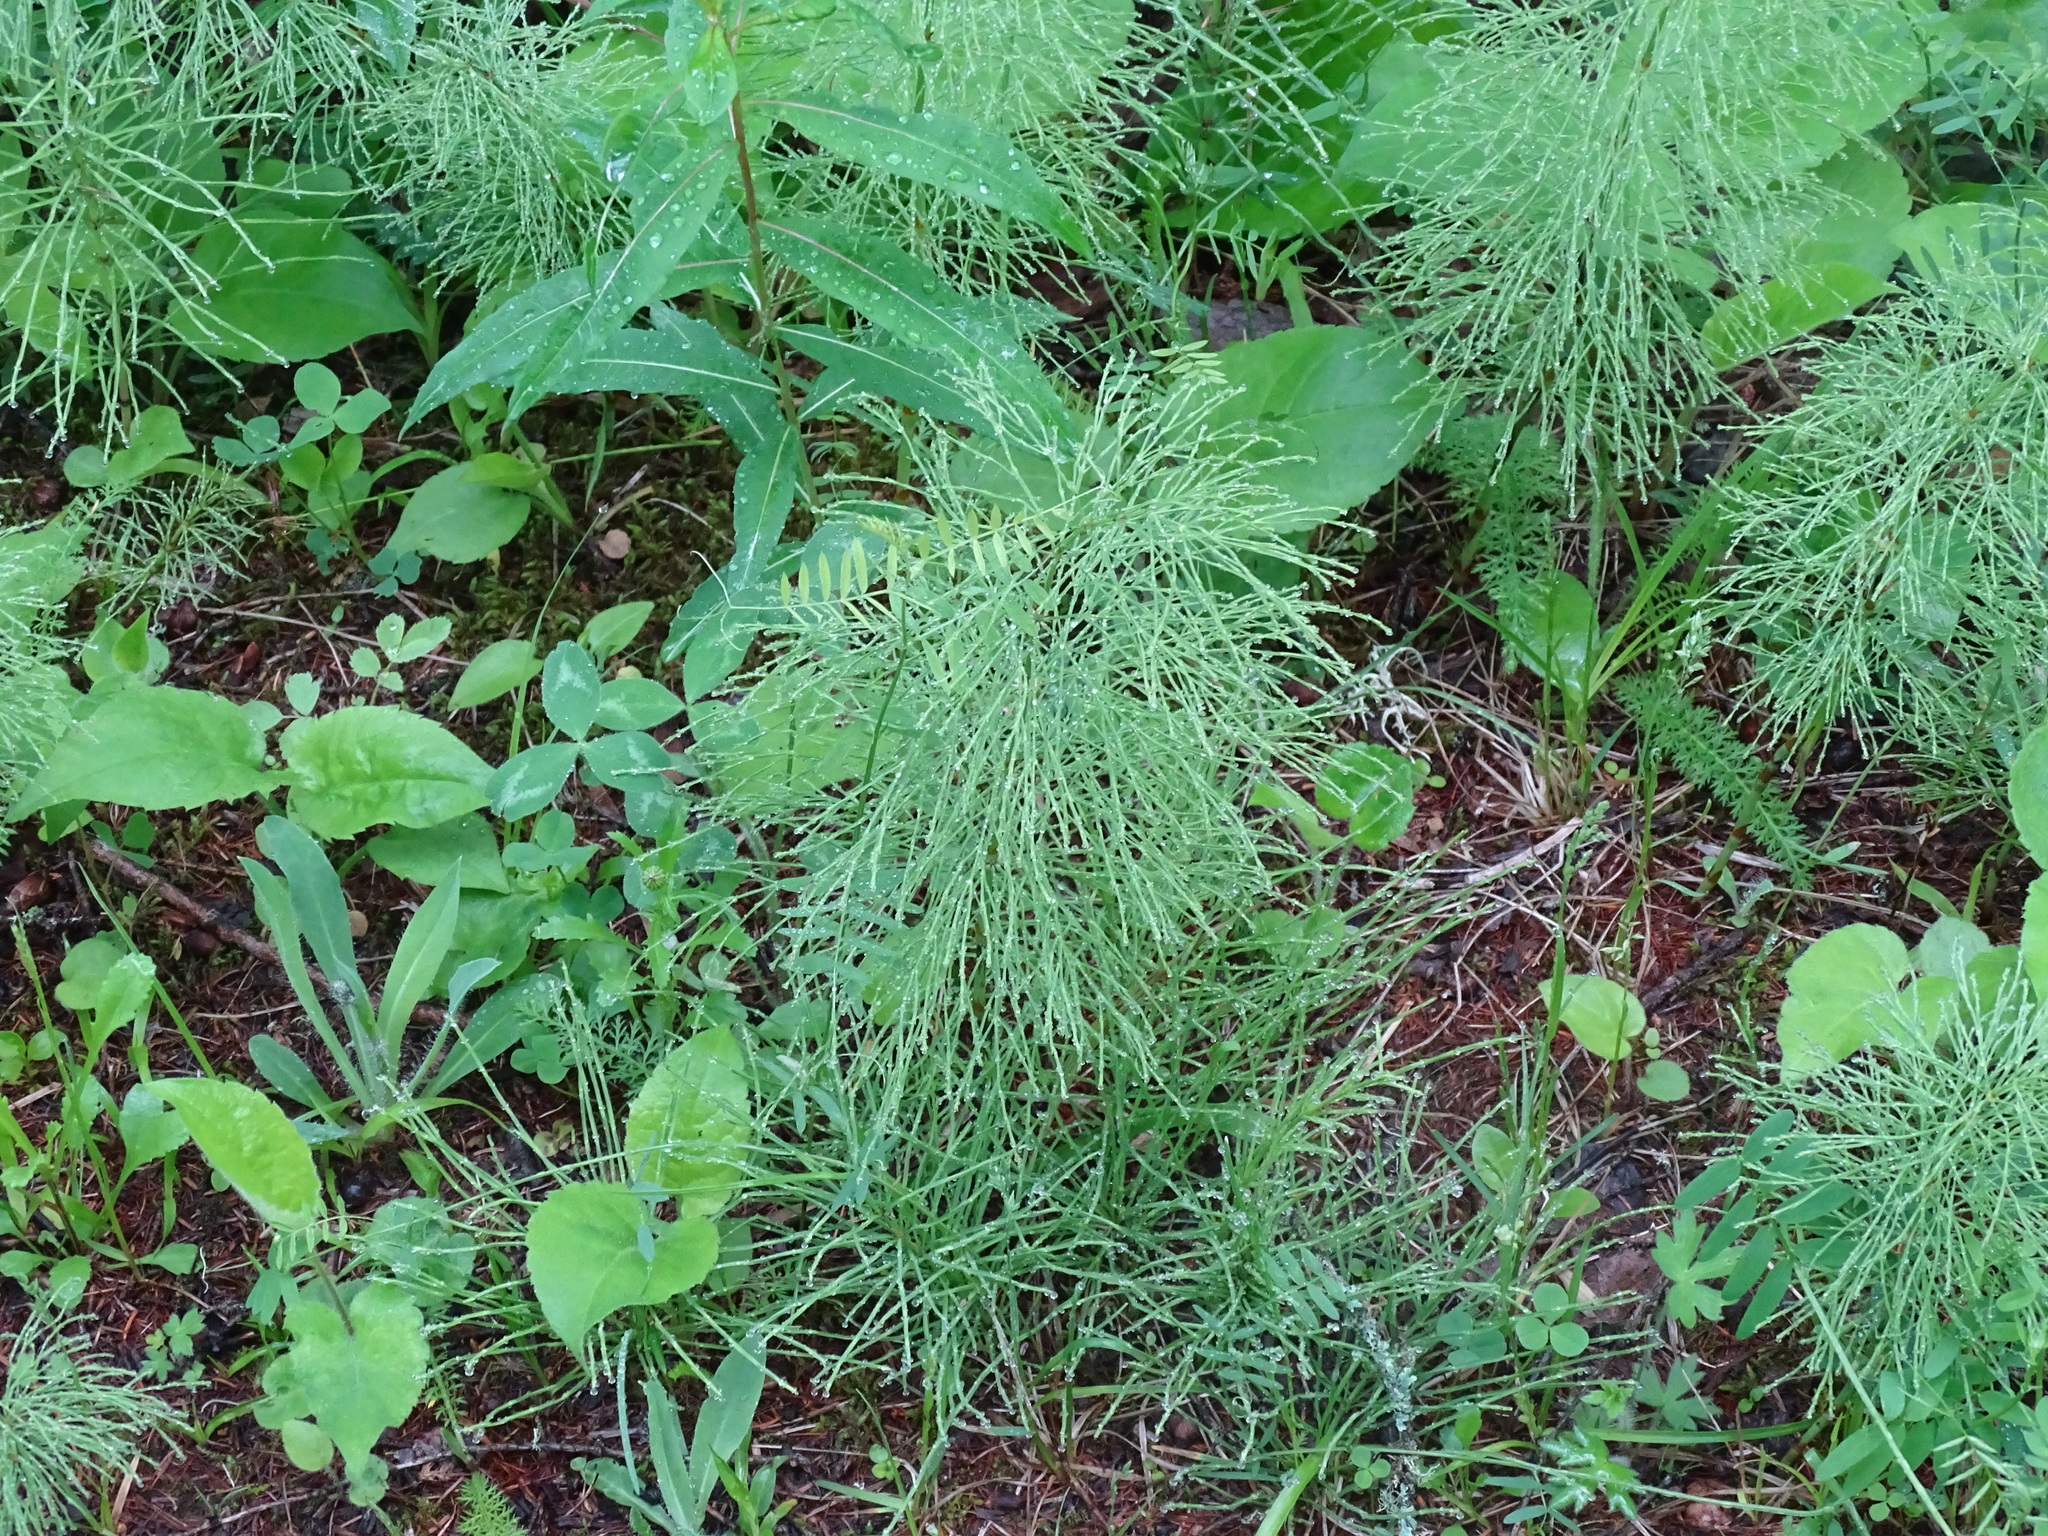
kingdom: Plantae
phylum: Tracheophyta
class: Polypodiopsida
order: Equisetales
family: Equisetaceae
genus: Equisetum
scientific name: Equisetum sylvaticum
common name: Wood horsetail
